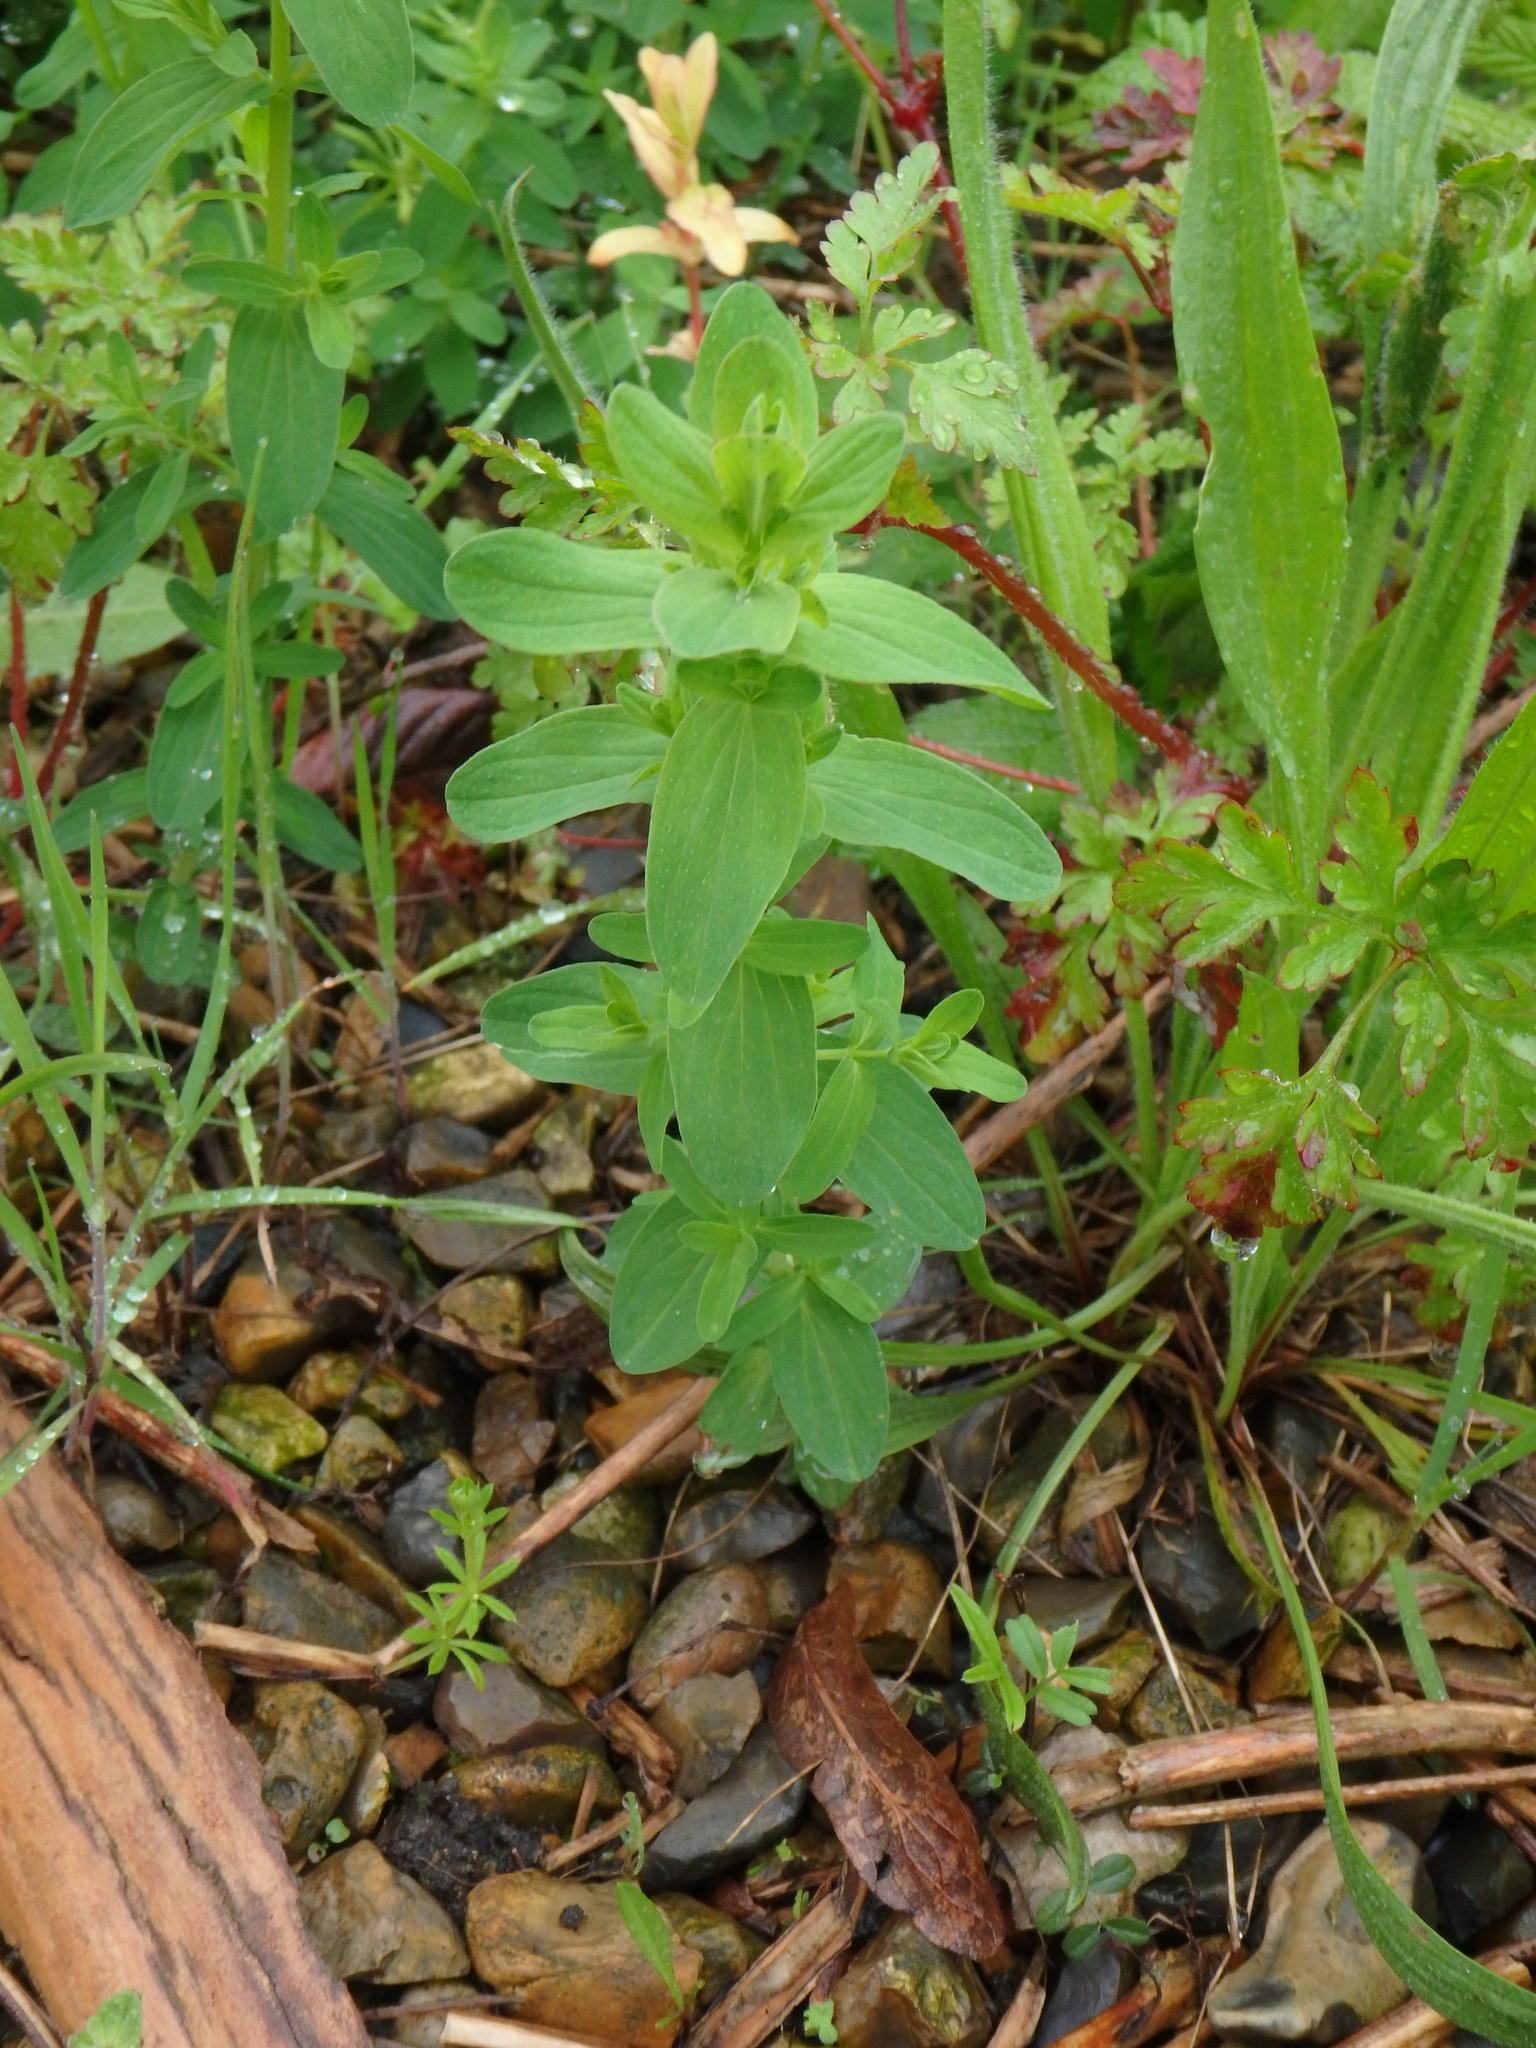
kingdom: Plantae
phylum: Tracheophyta
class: Magnoliopsida
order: Malpighiales
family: Hypericaceae
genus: Hypericum
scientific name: Hypericum perforatum
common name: Common st. johnswort
